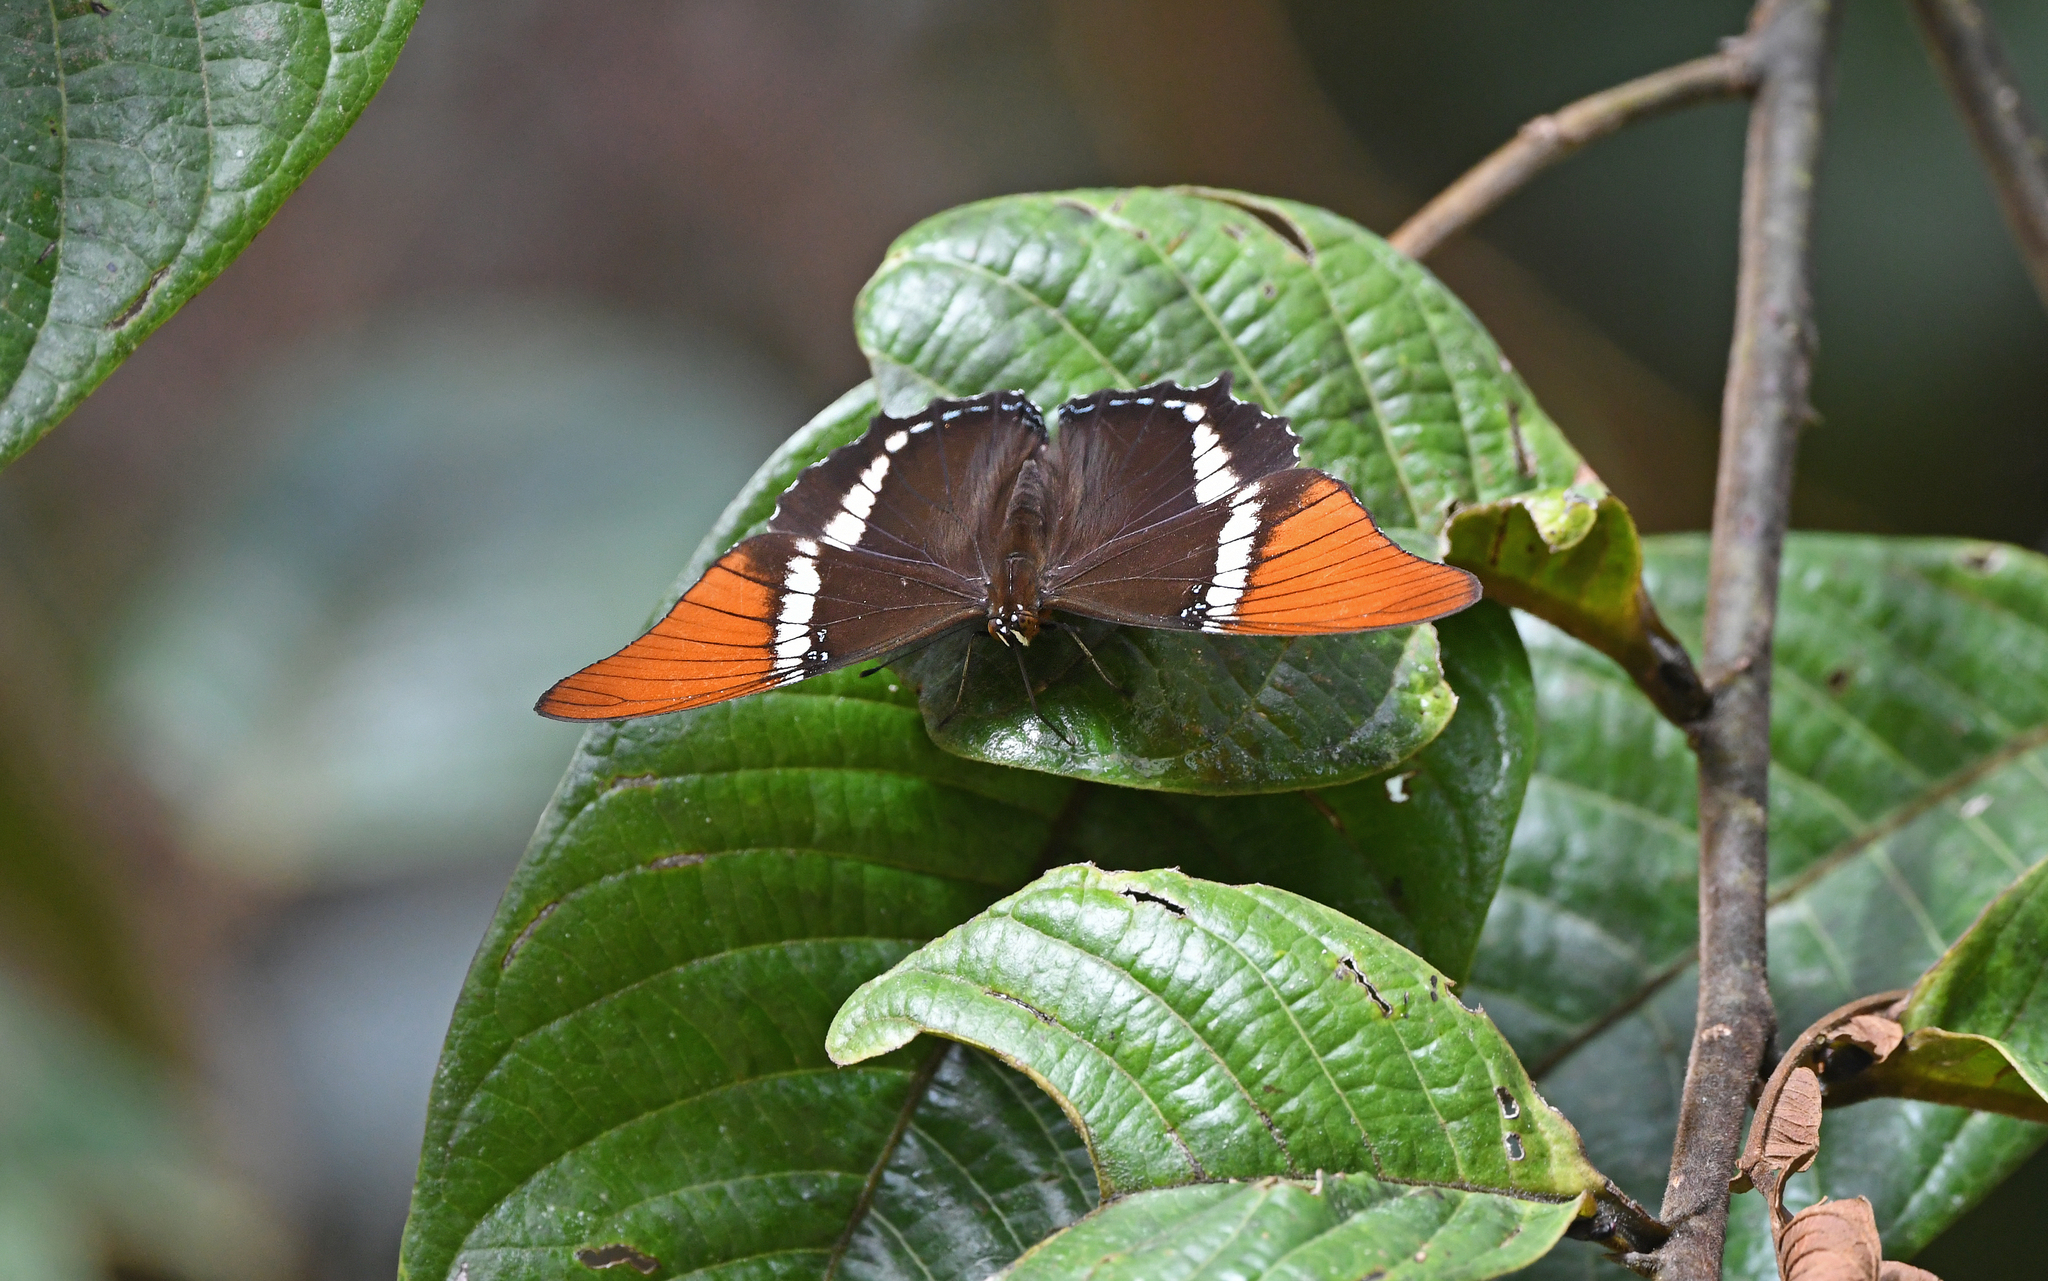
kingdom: Animalia
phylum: Arthropoda
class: Insecta
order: Lepidoptera
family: Nymphalidae
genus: Siproeta
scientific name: Siproeta epaphus
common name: Rusty-tipped page
